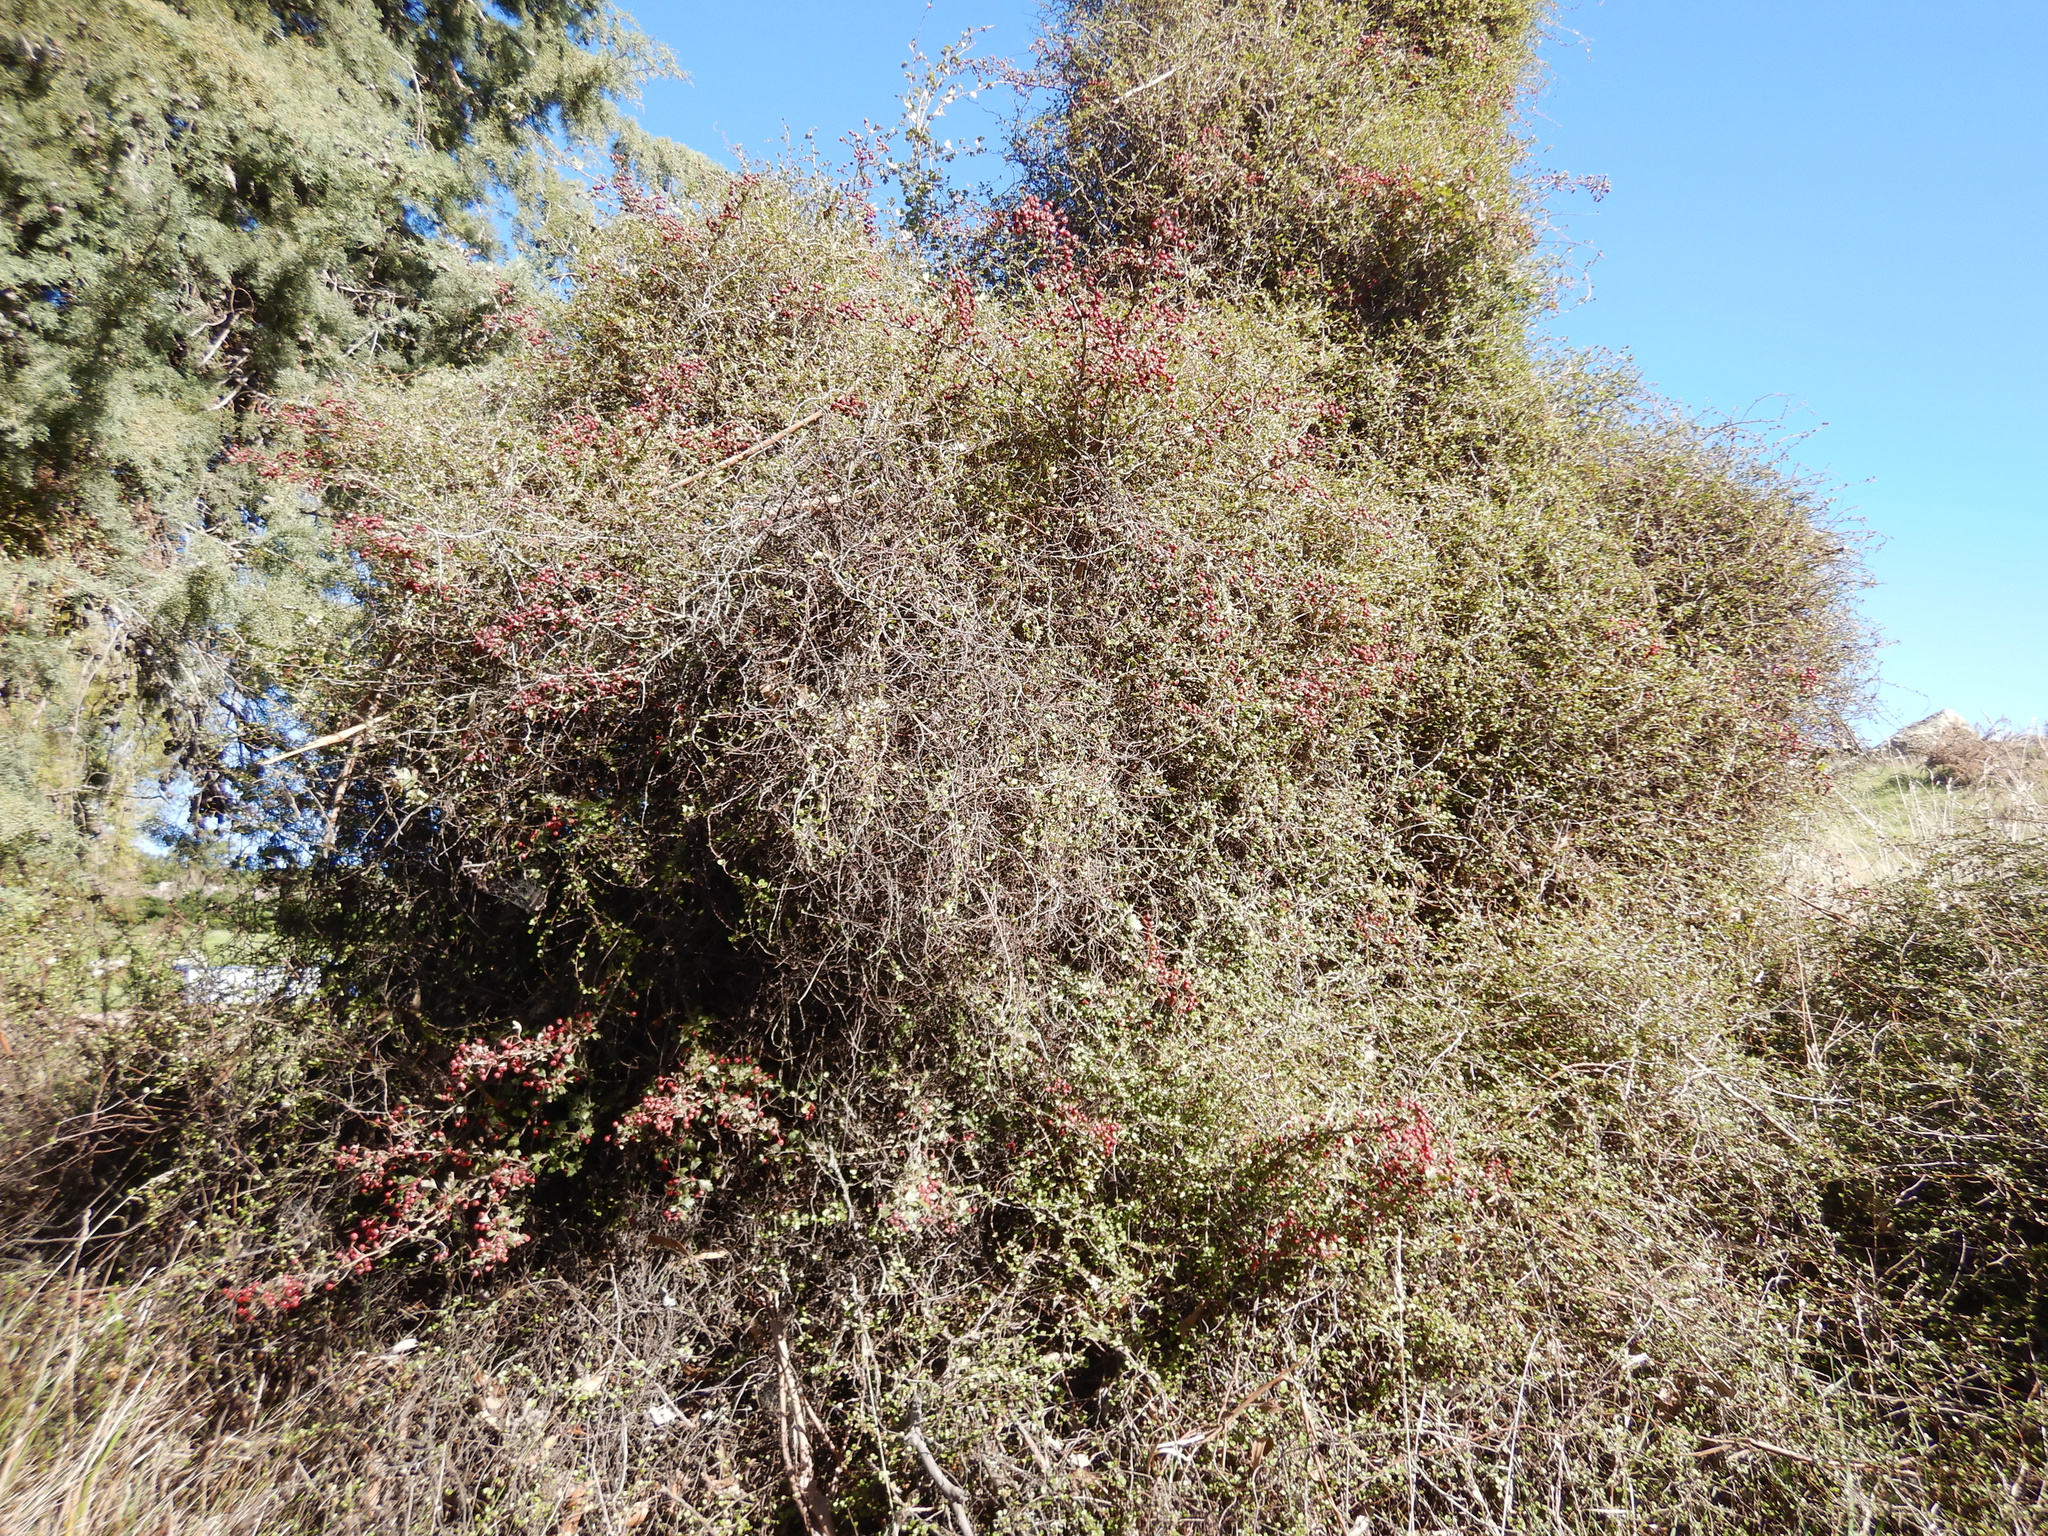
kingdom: Plantae
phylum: Tracheophyta
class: Magnoliopsida
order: Rosales
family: Rosaceae
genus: Crataegus
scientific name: Crataegus monogyna
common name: Hawthorn
